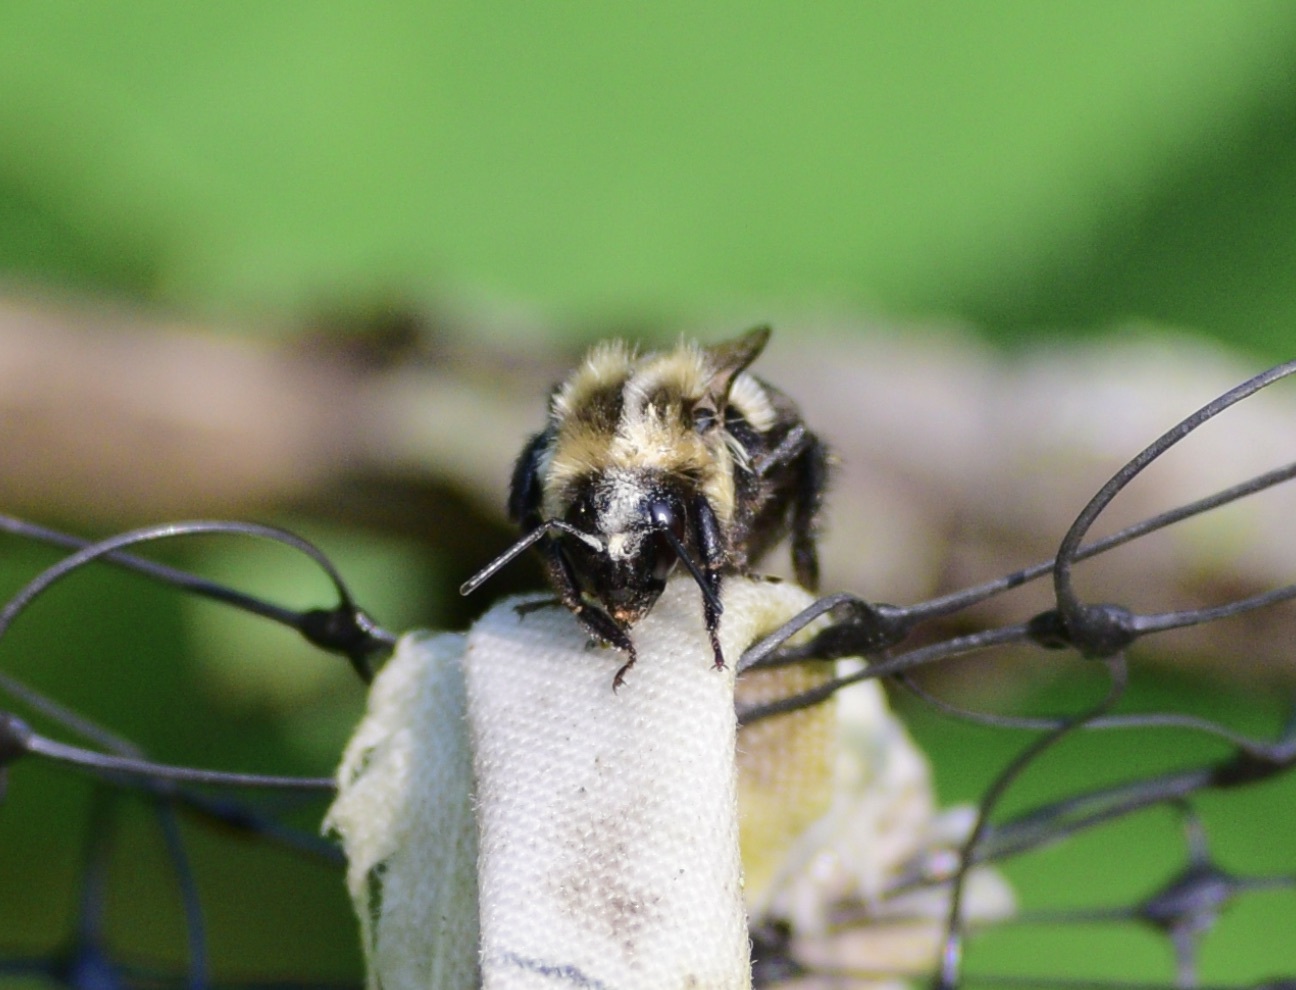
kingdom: Animalia
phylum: Arthropoda
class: Insecta
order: Hymenoptera
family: Apidae
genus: Bombus
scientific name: Bombus impatiens
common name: Common eastern bumble bee
